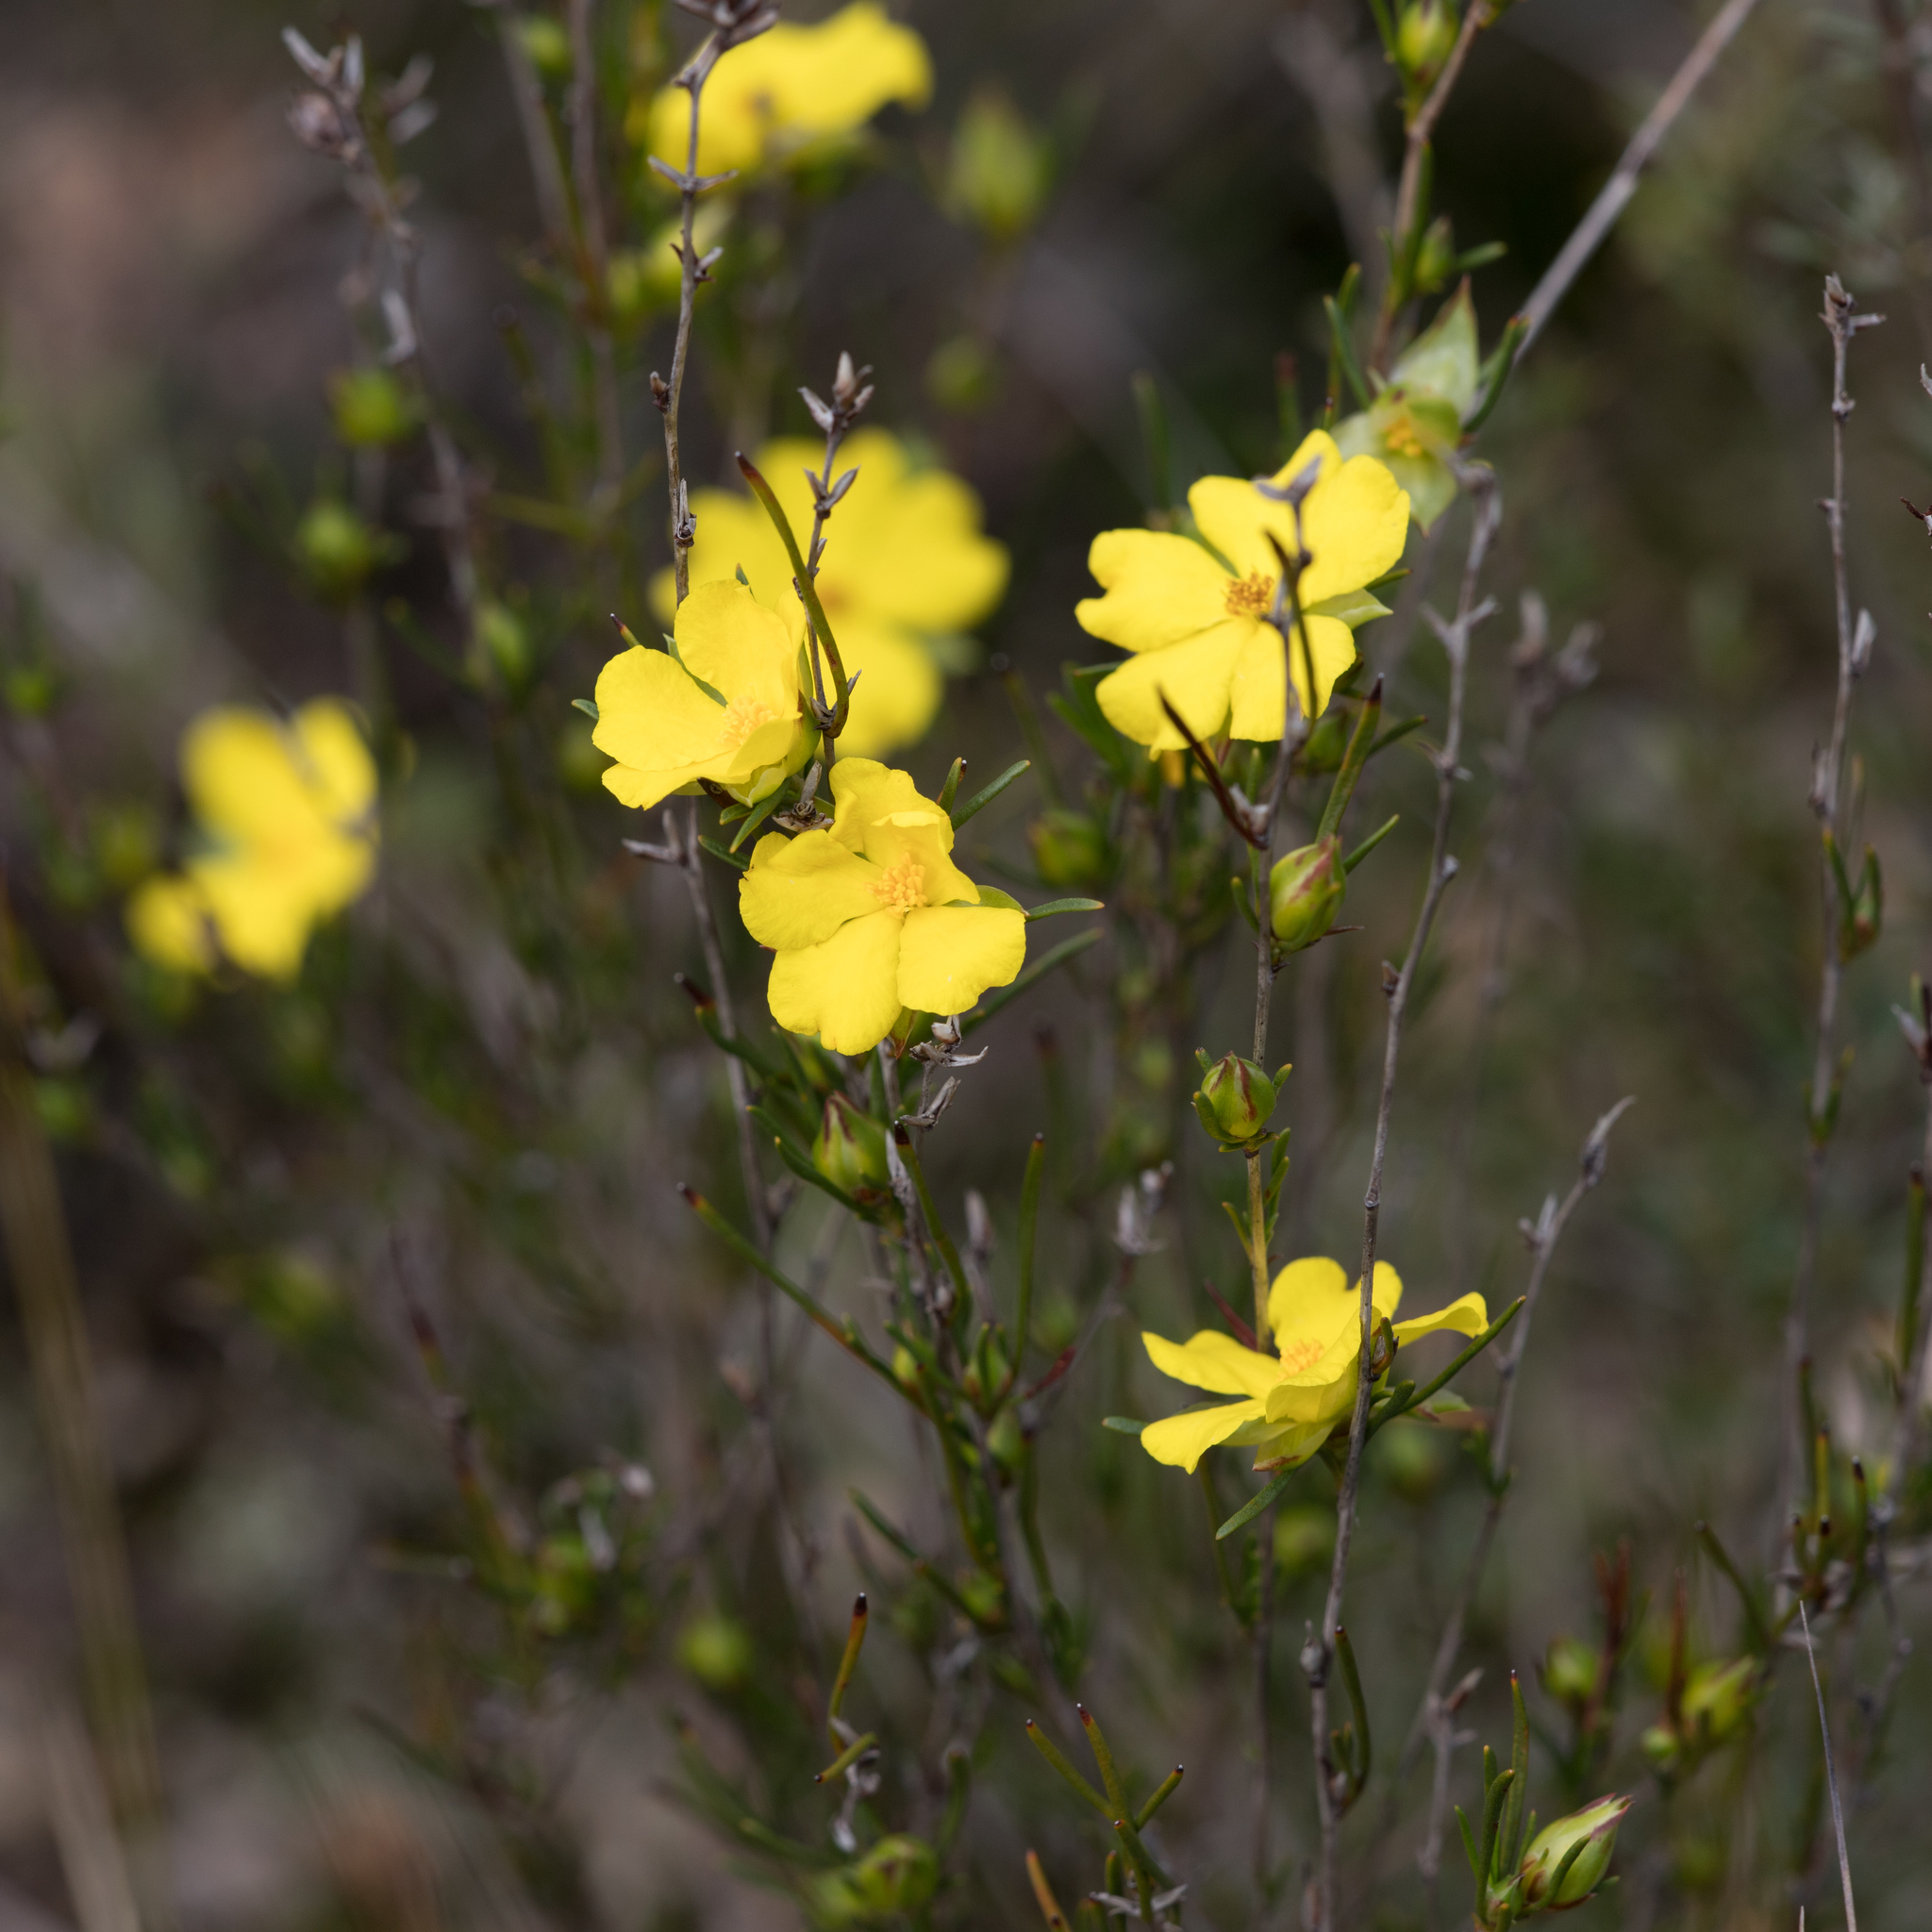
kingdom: Plantae
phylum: Tracheophyta
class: Magnoliopsida
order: Dilleniales
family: Dilleniaceae
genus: Hibbertia
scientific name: Hibbertia virgata
